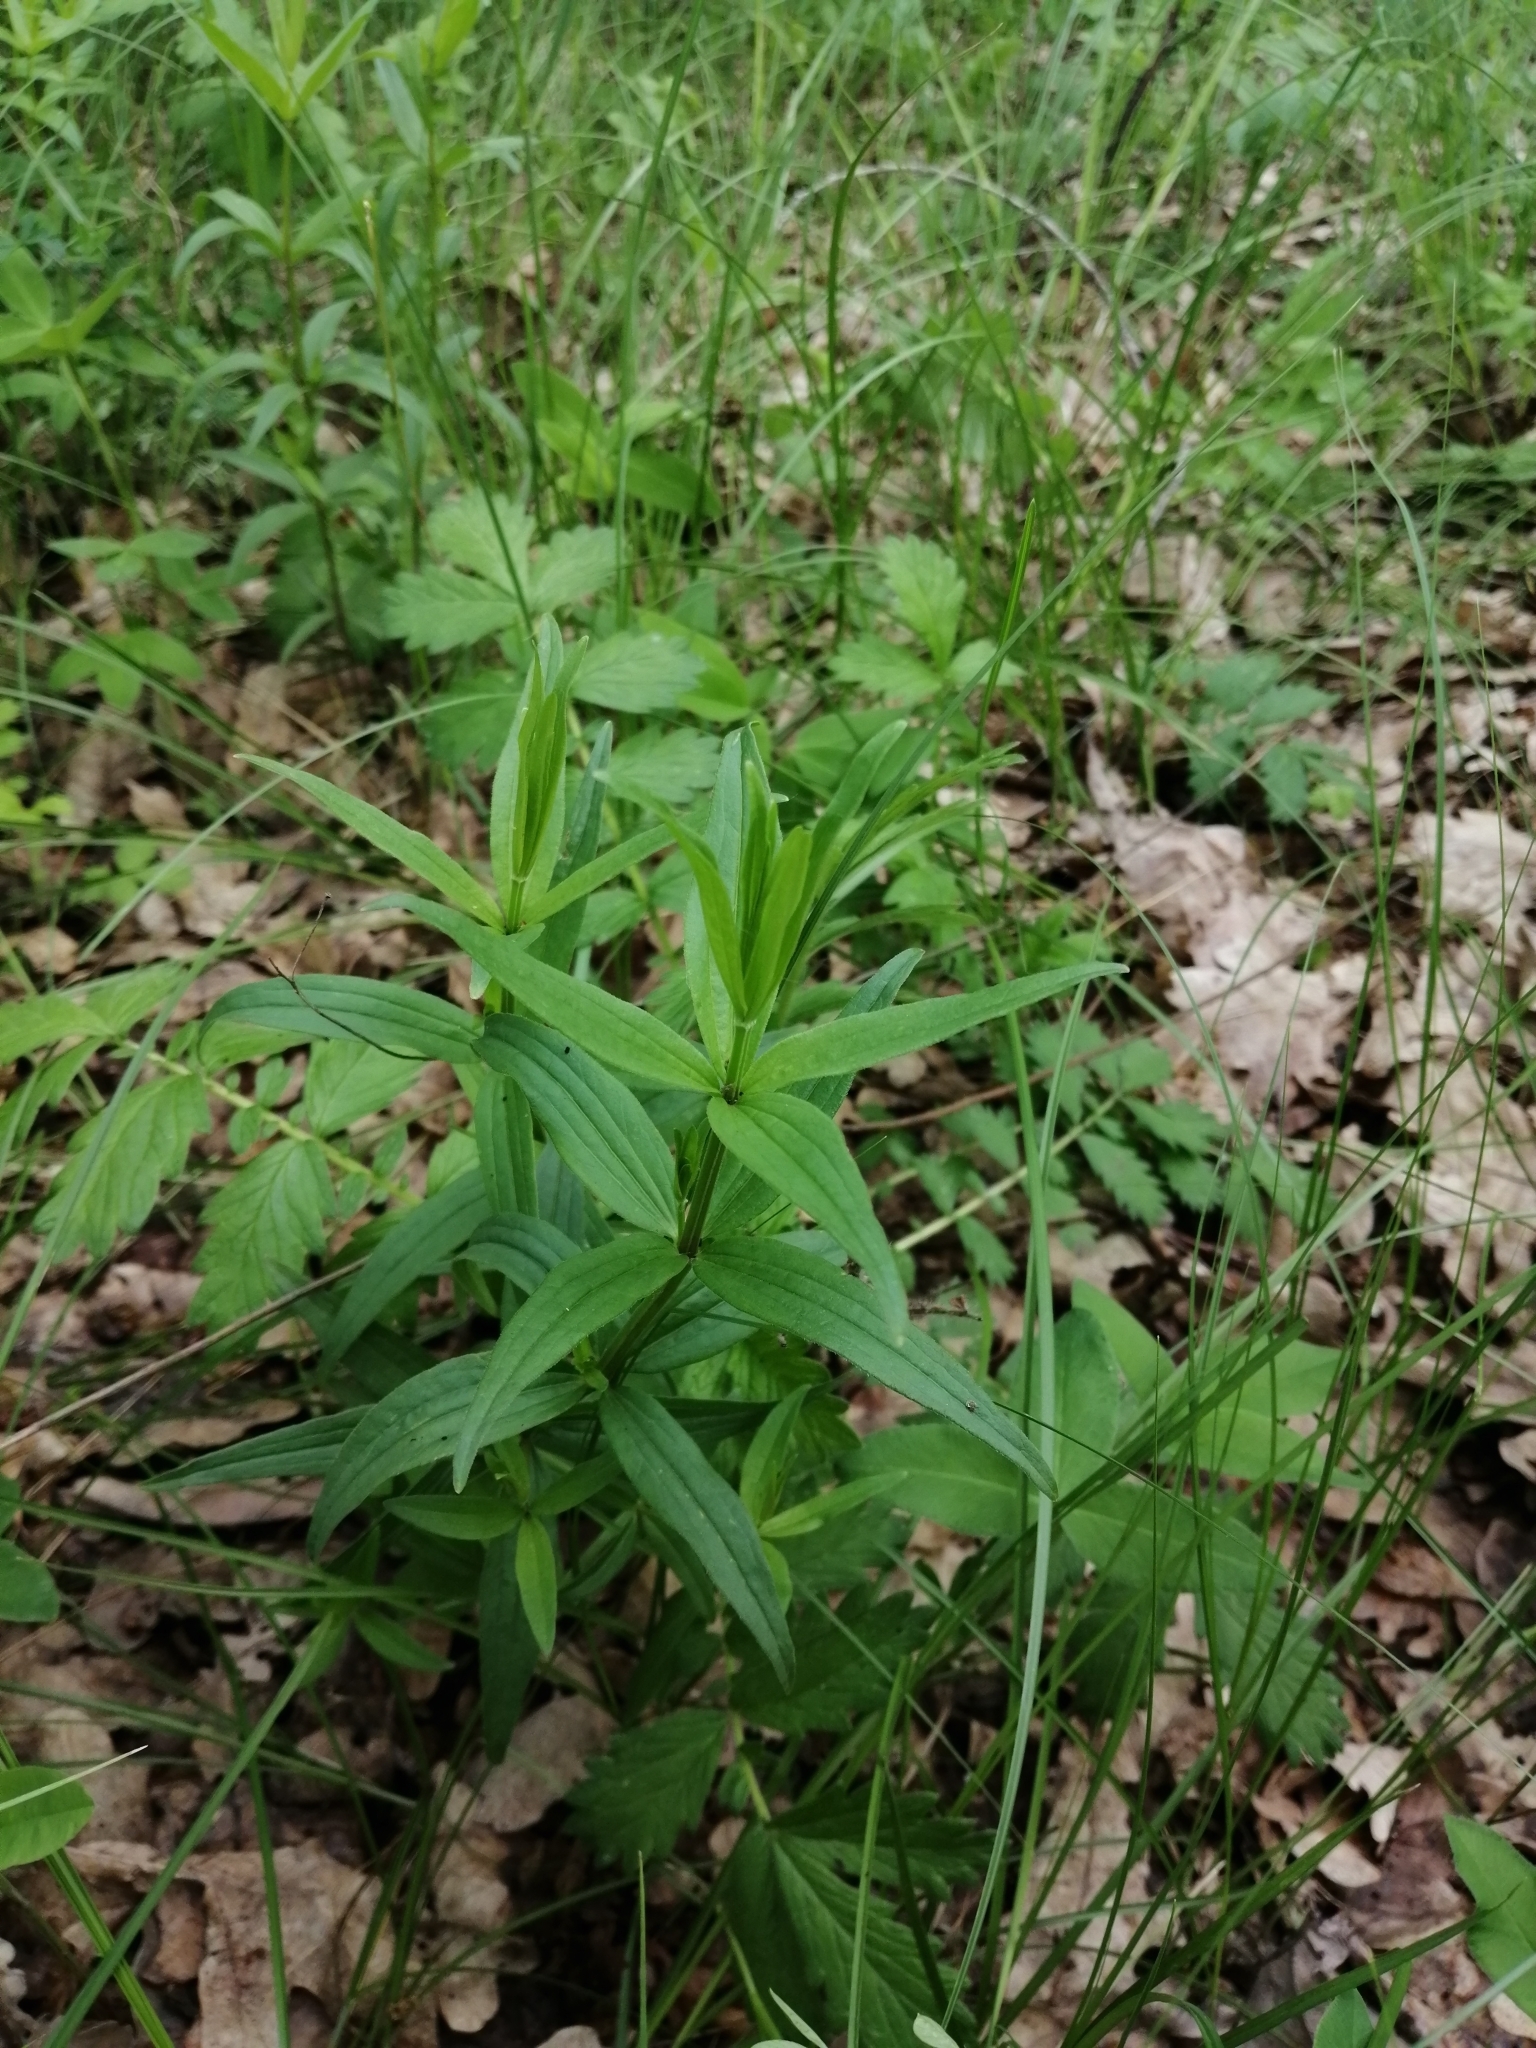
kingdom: Plantae
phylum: Tracheophyta
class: Magnoliopsida
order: Gentianales
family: Rubiaceae
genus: Galium
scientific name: Galium rubioides
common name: European bedstraw
